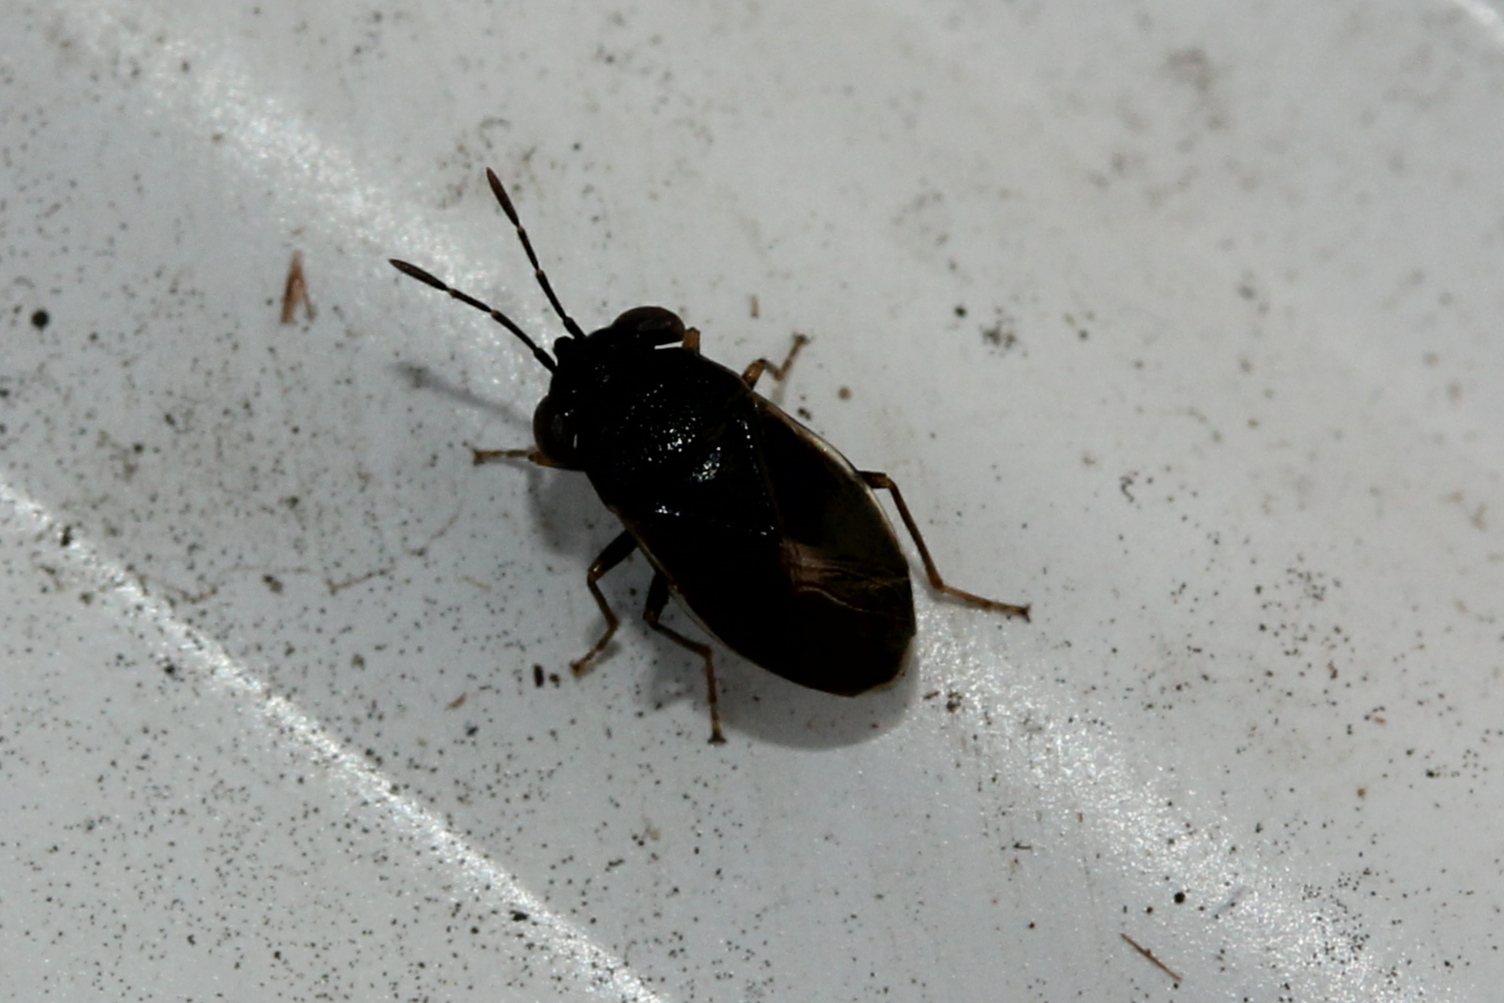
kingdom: Animalia
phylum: Arthropoda
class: Insecta
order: Hemiptera
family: Geocoridae
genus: Geocoris
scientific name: Geocoris uliginosus
